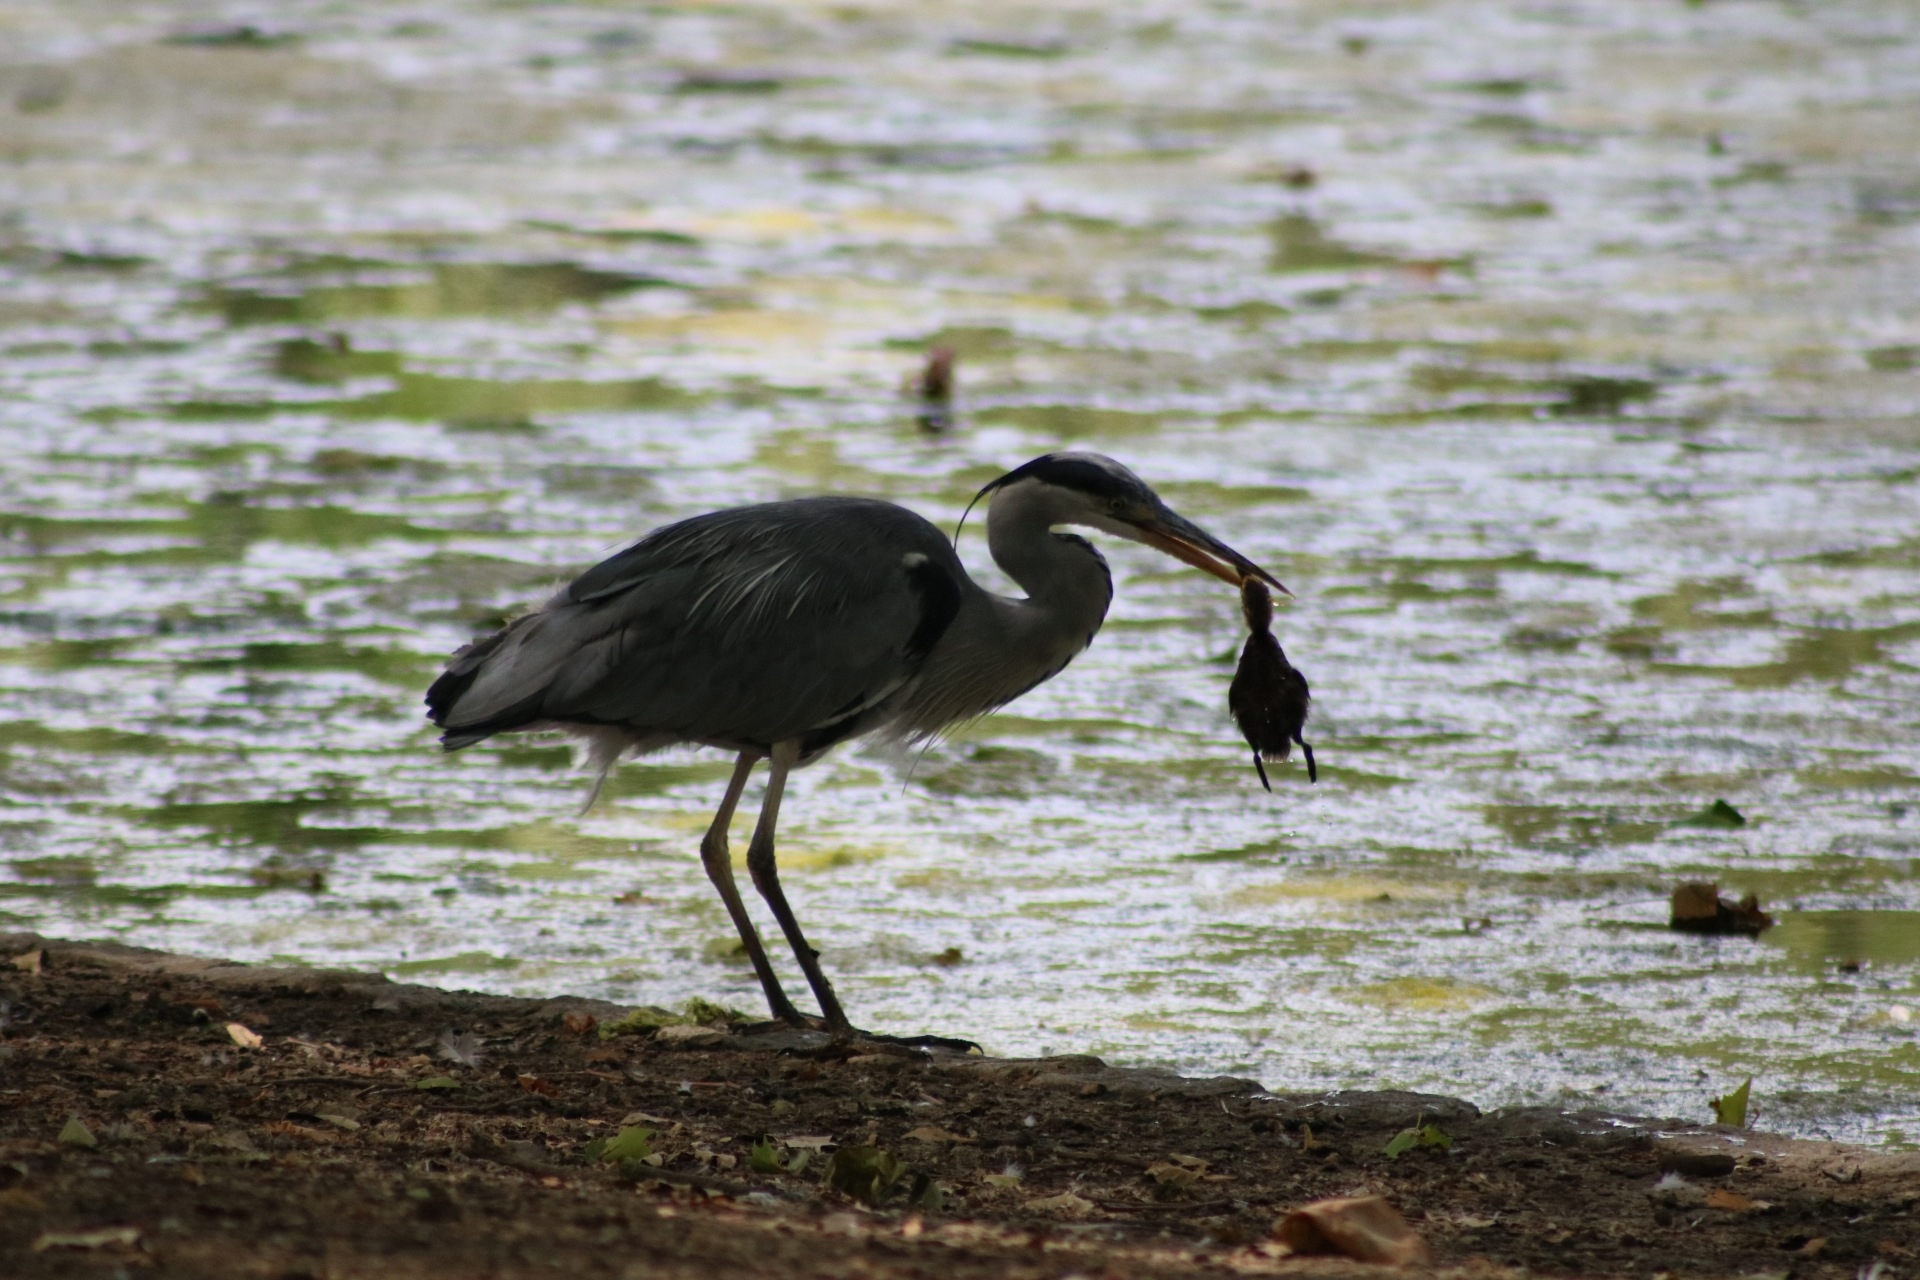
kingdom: Animalia
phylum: Chordata
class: Aves
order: Pelecaniformes
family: Ardeidae
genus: Ardea
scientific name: Ardea cinerea
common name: Grey heron
